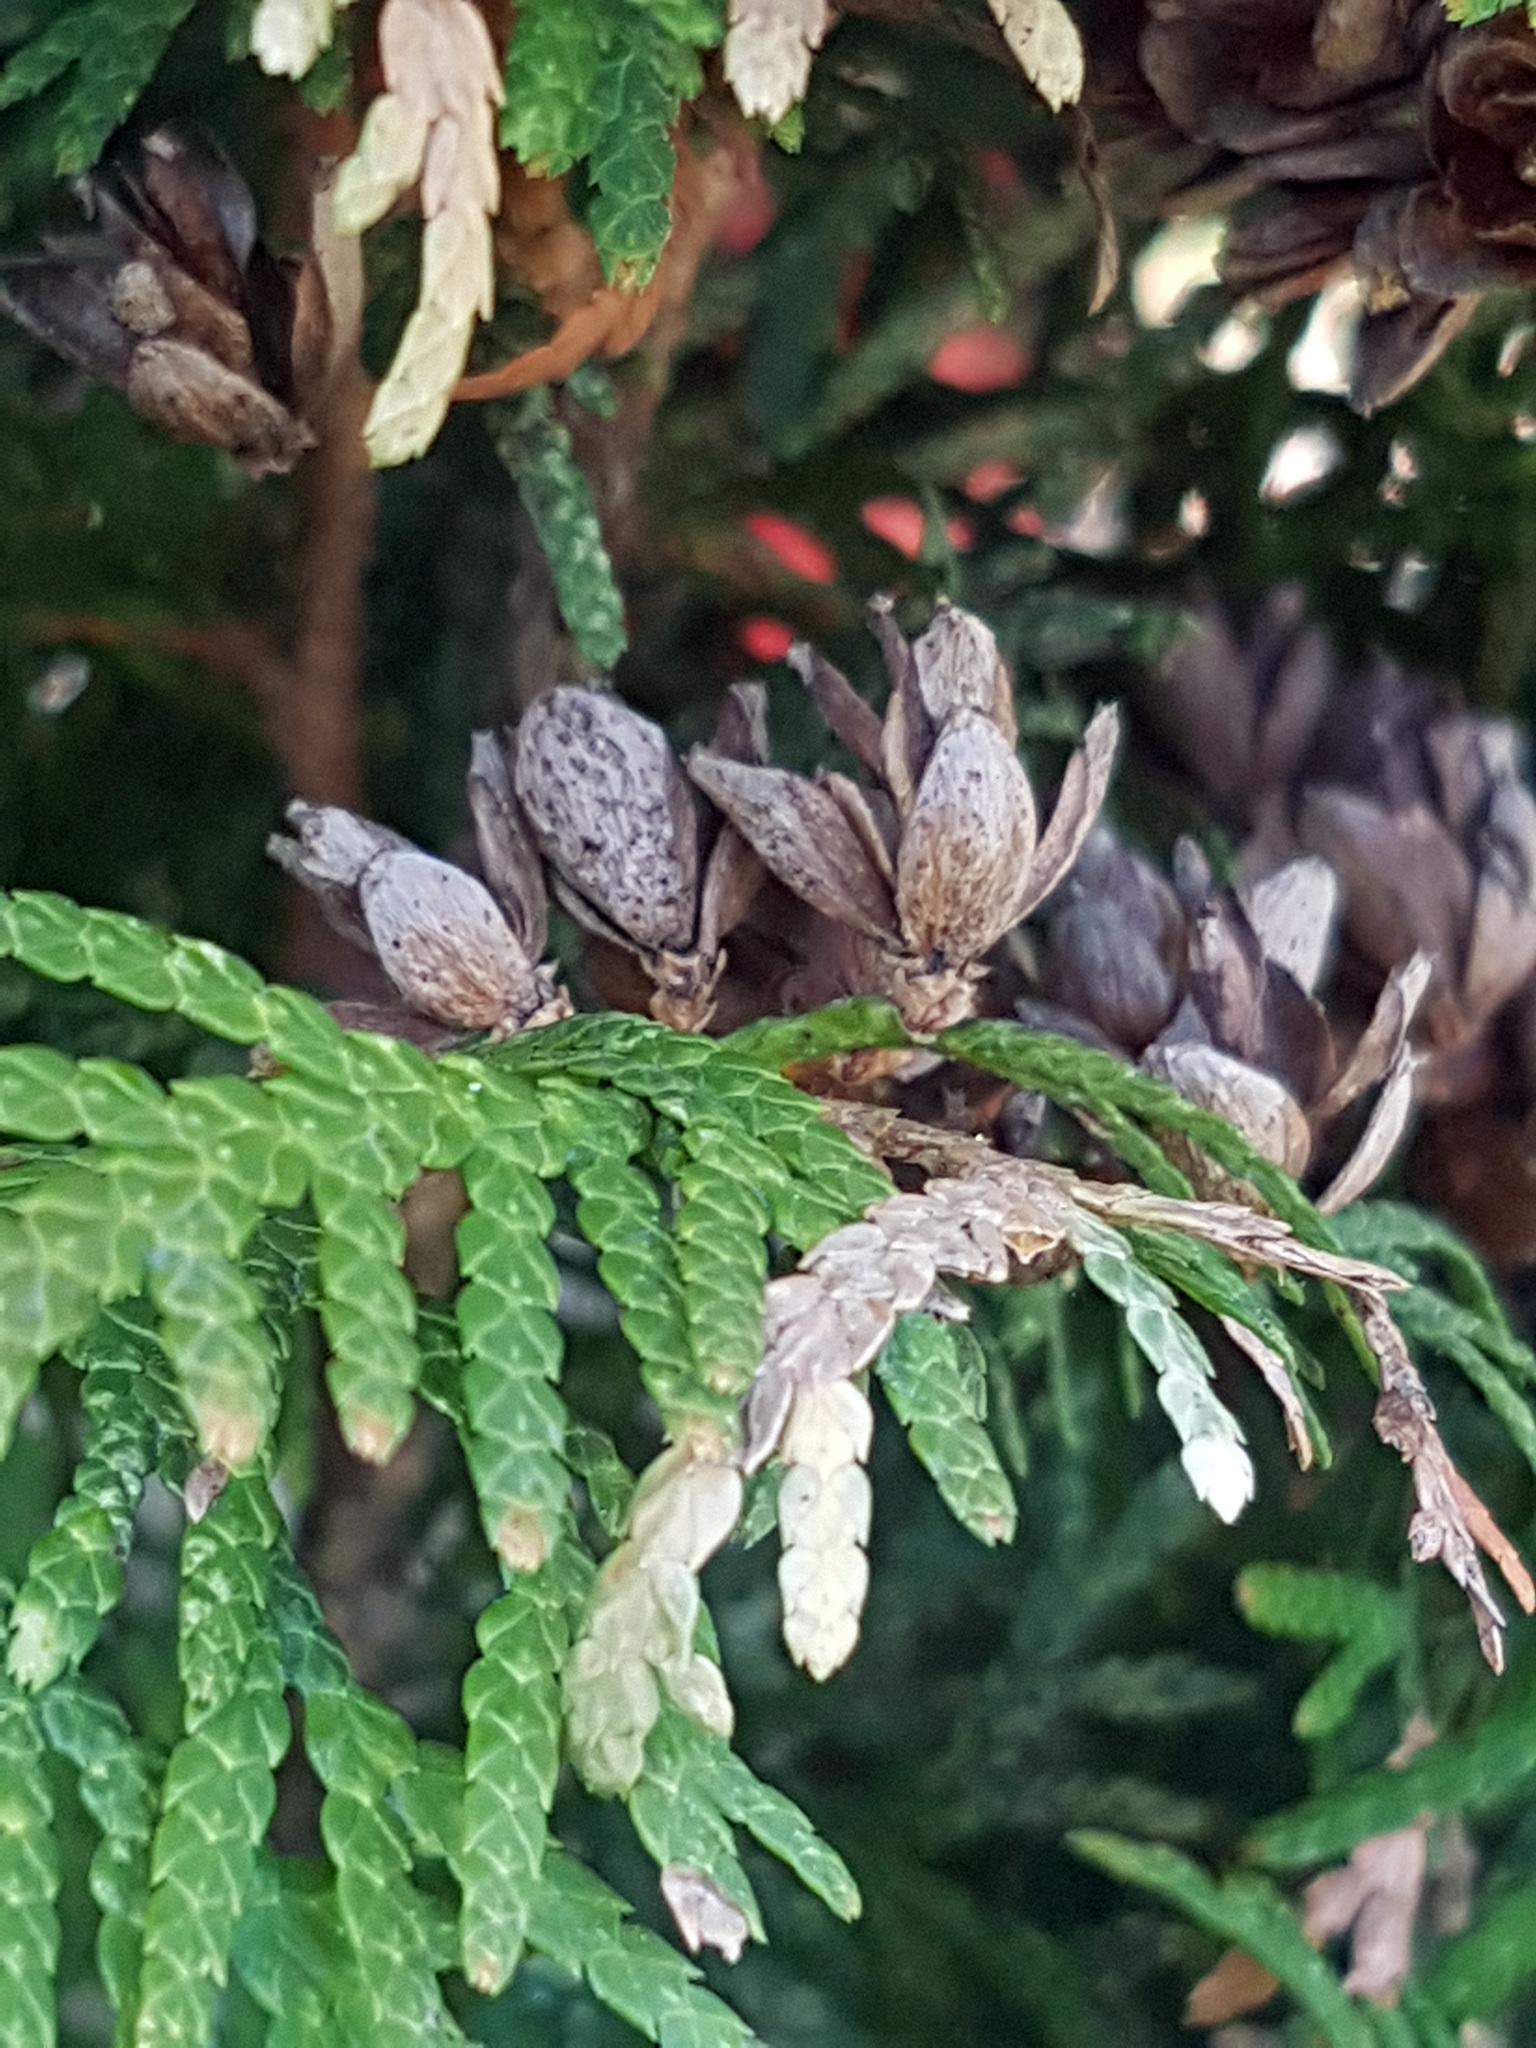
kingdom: Plantae
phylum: Tracheophyta
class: Pinopsida
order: Pinales
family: Cupressaceae
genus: Thuja
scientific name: Thuja occidentalis
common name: Northern white-cedar
